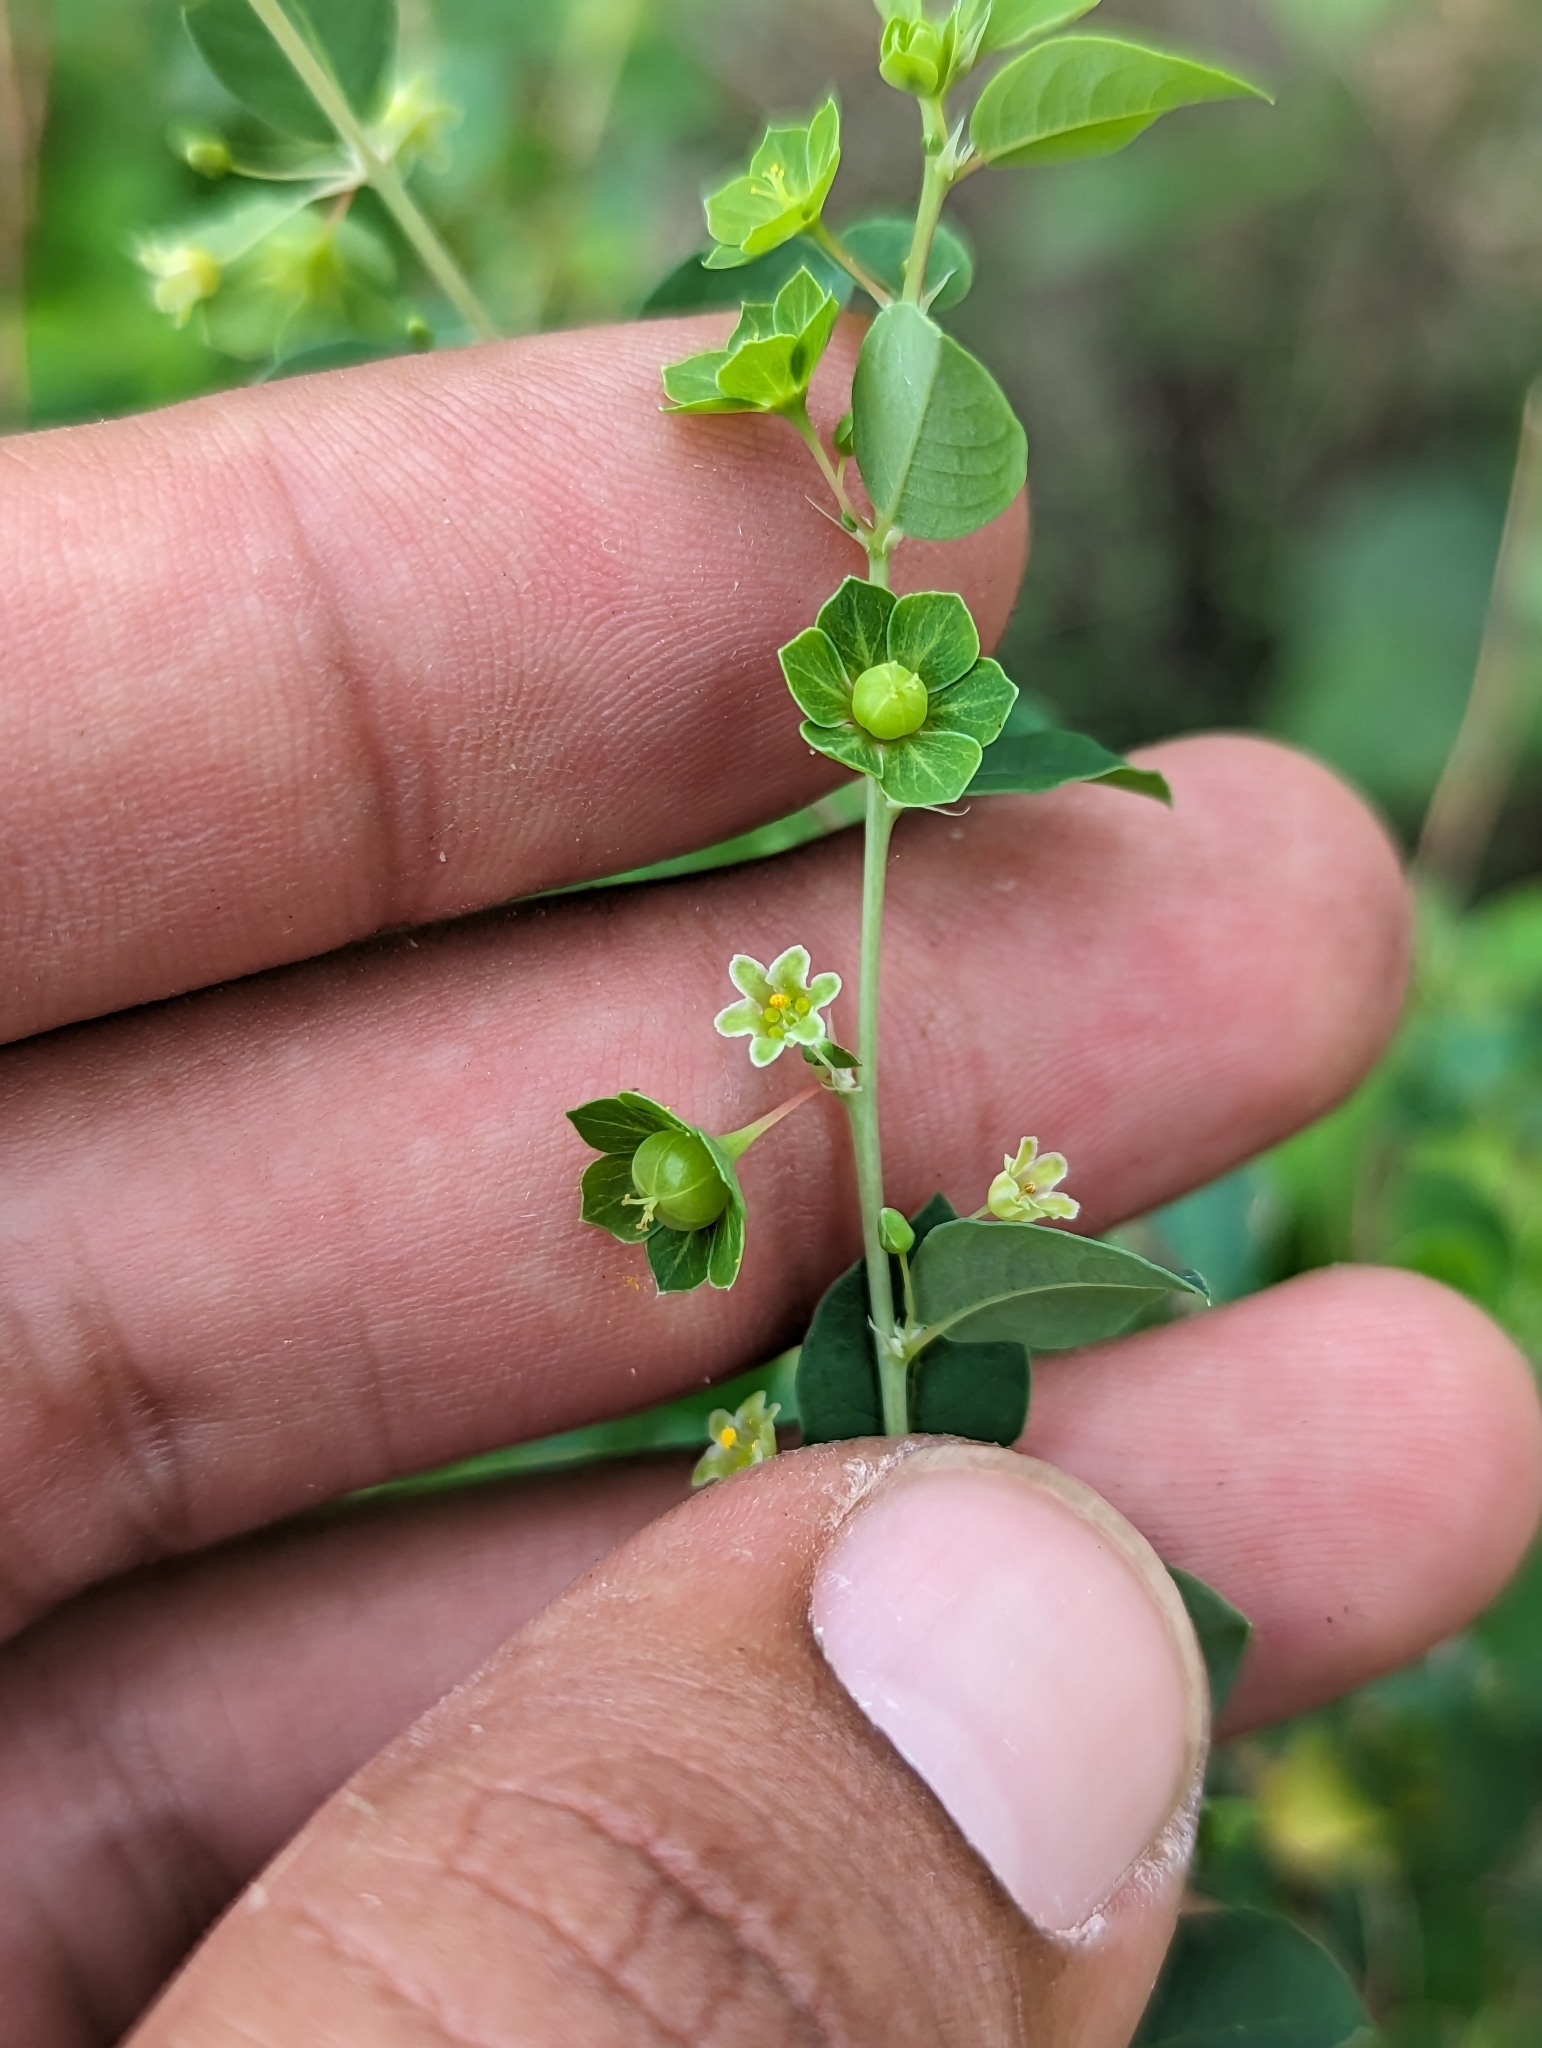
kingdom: Plantae
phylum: Tracheophyta
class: Magnoliopsida
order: Malpighiales
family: Phyllanthaceae
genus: Phyllanthus
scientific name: Phyllanthus gypsicola
